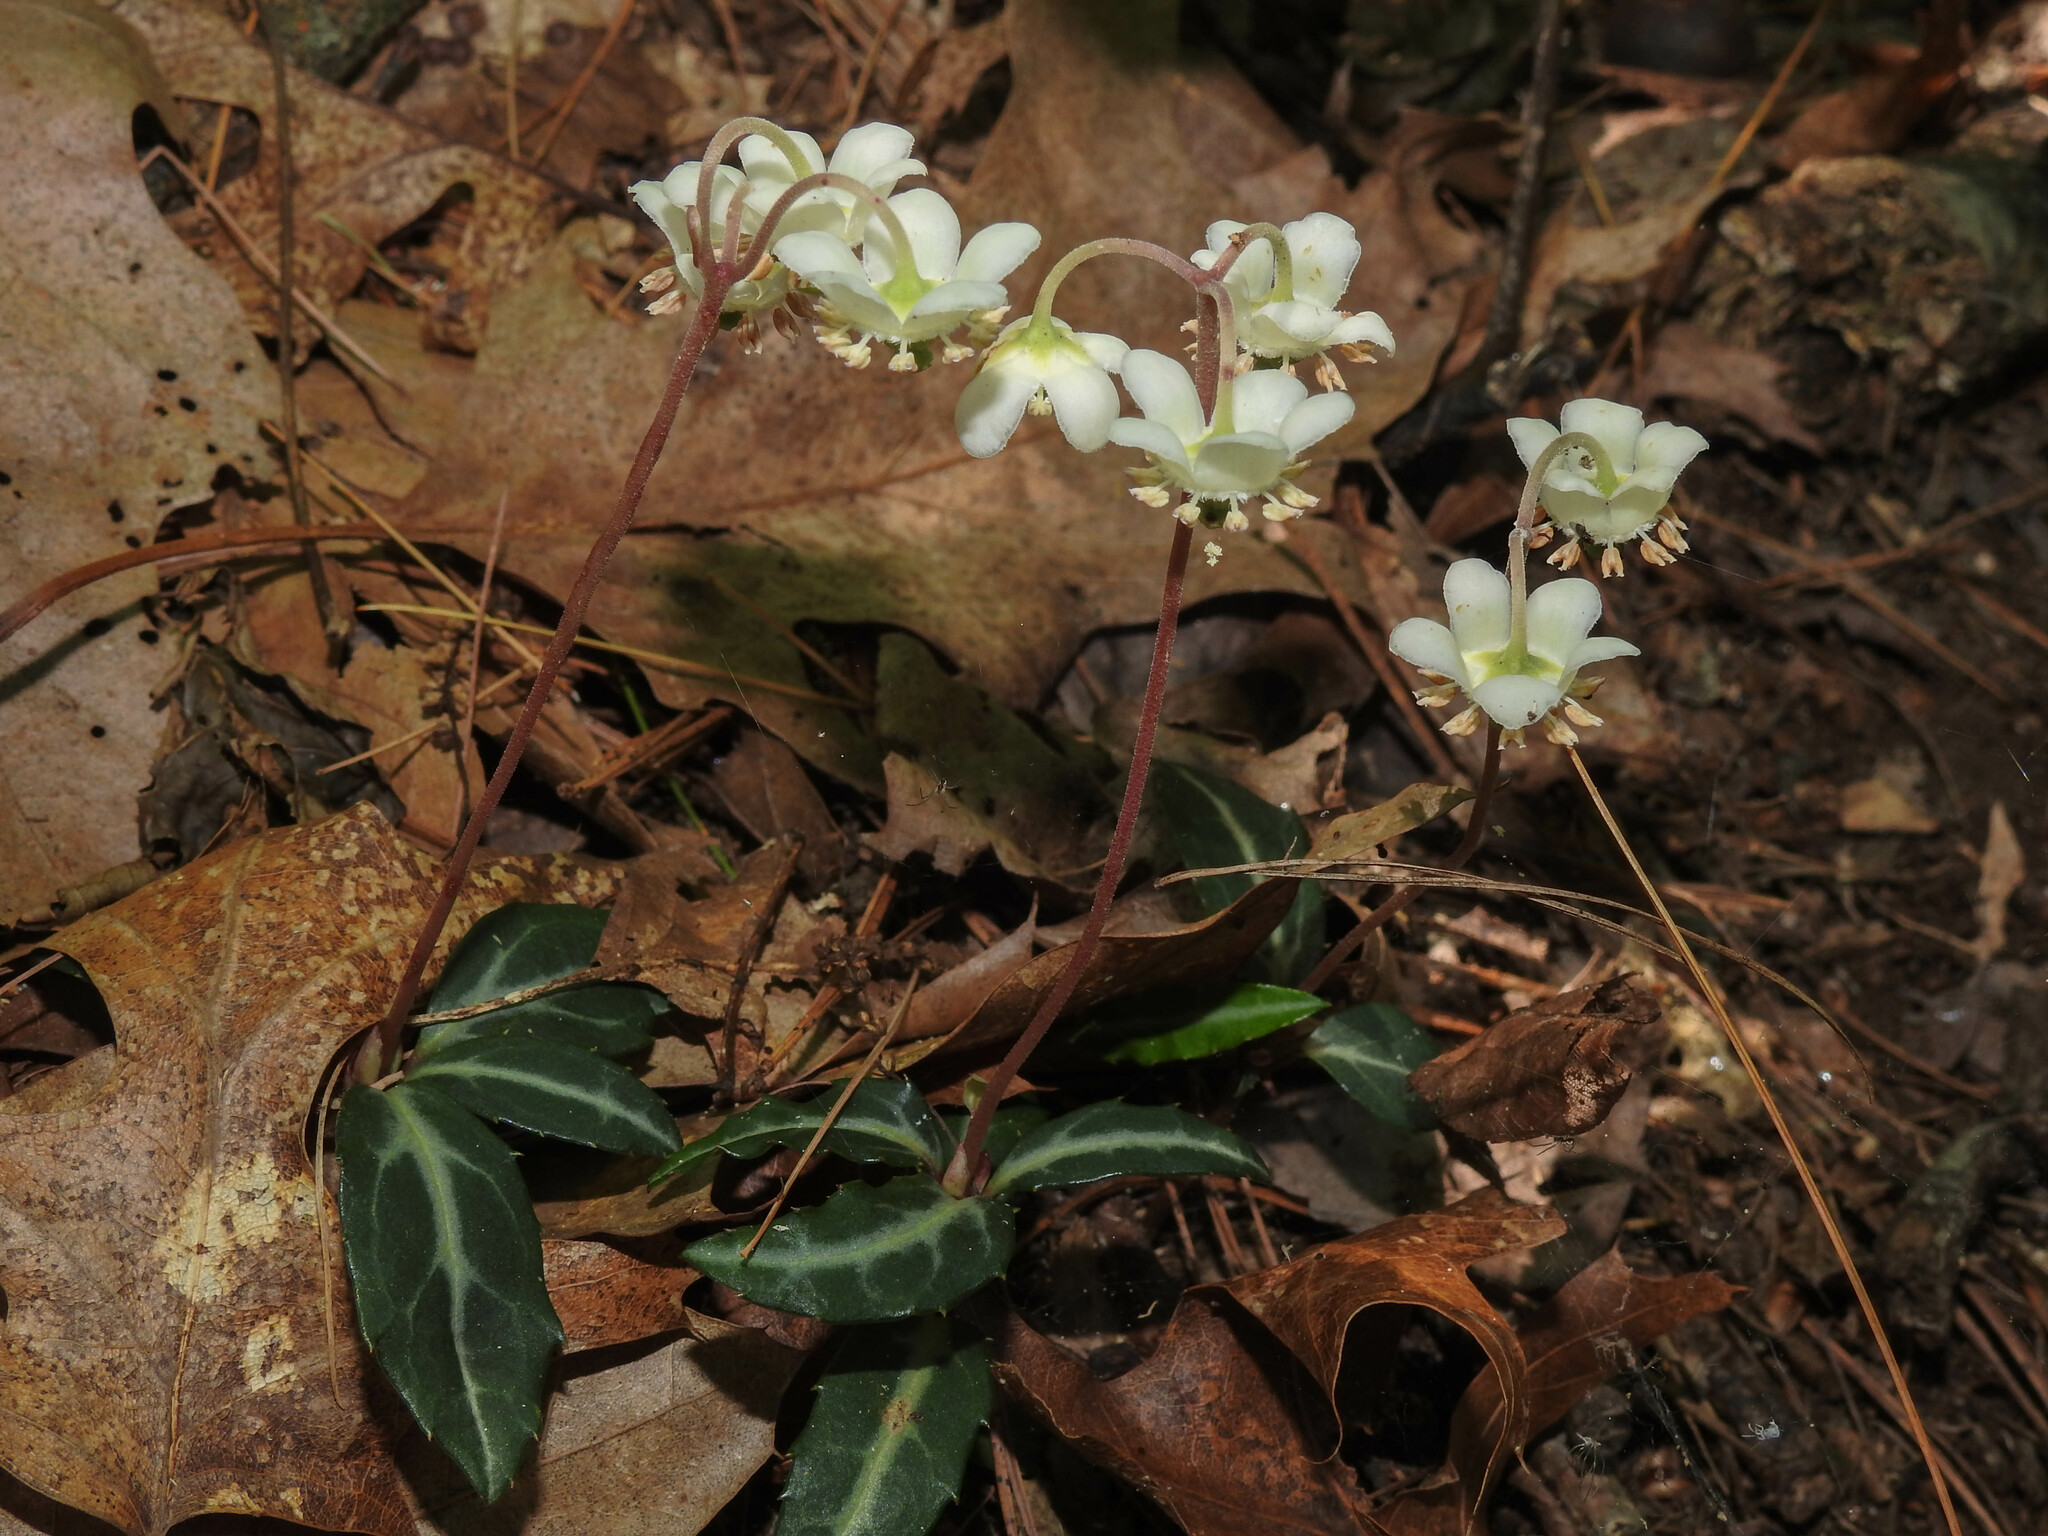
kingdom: Plantae
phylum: Tracheophyta
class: Magnoliopsida
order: Ericales
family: Ericaceae
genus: Chimaphila
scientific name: Chimaphila maculata
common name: Spotted pipsissewa
